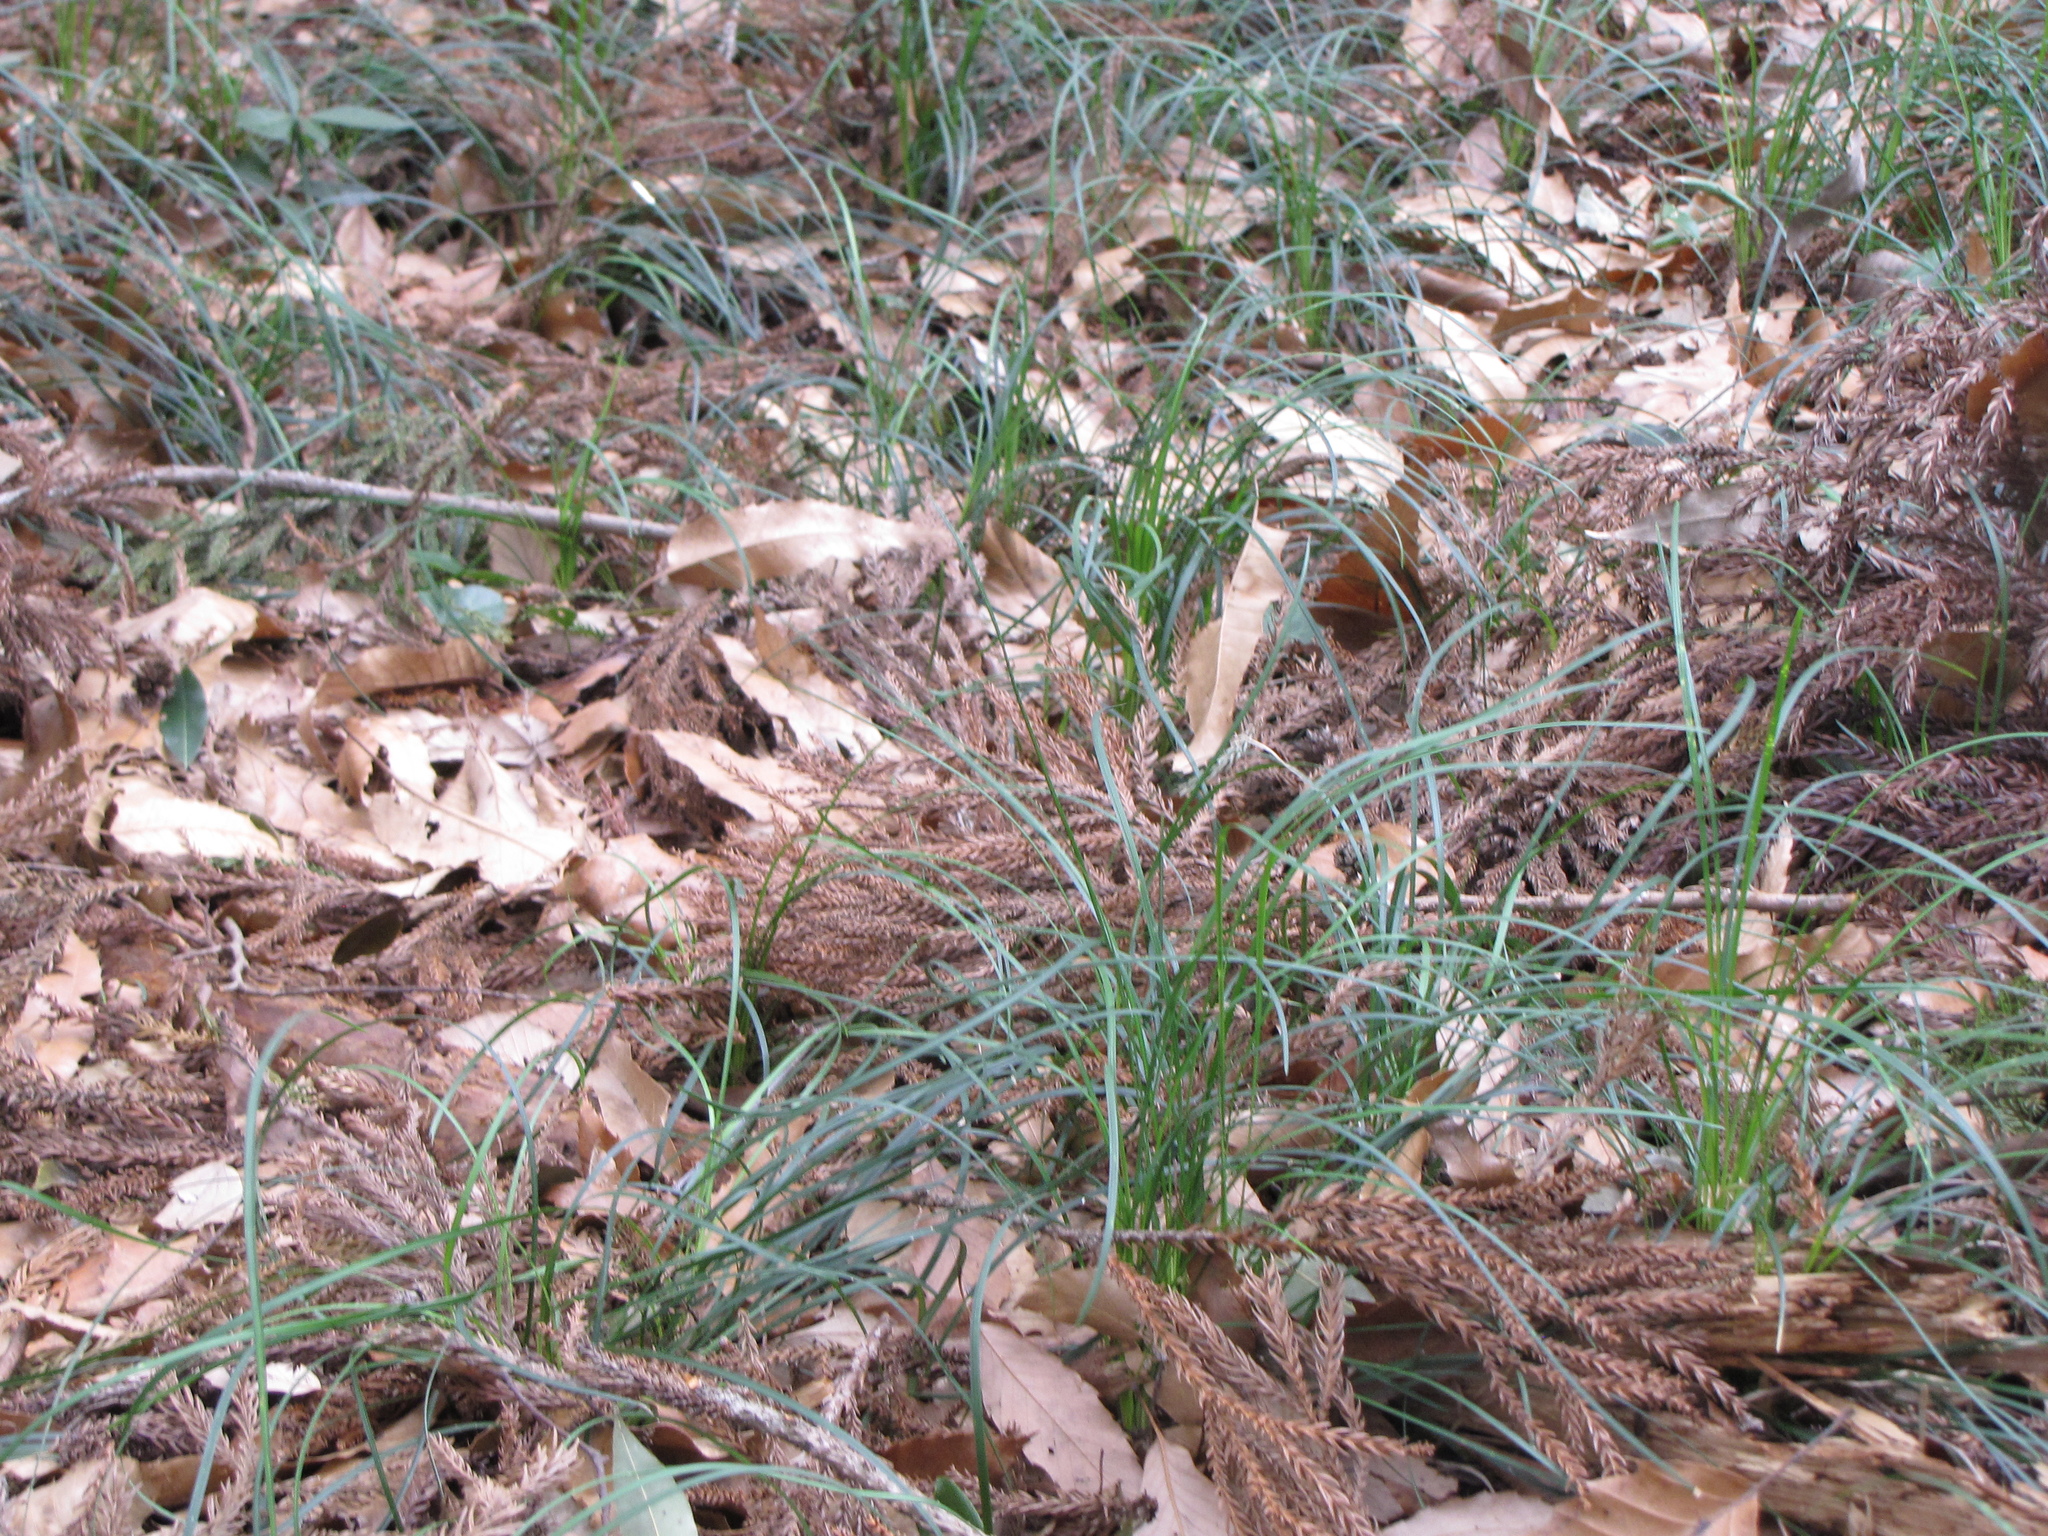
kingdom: Plantae
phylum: Tracheophyta
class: Liliopsida
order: Asparagales
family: Asparagaceae
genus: Ophiopogon
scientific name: Ophiopogon japonicus
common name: Dwarf lilyturf
